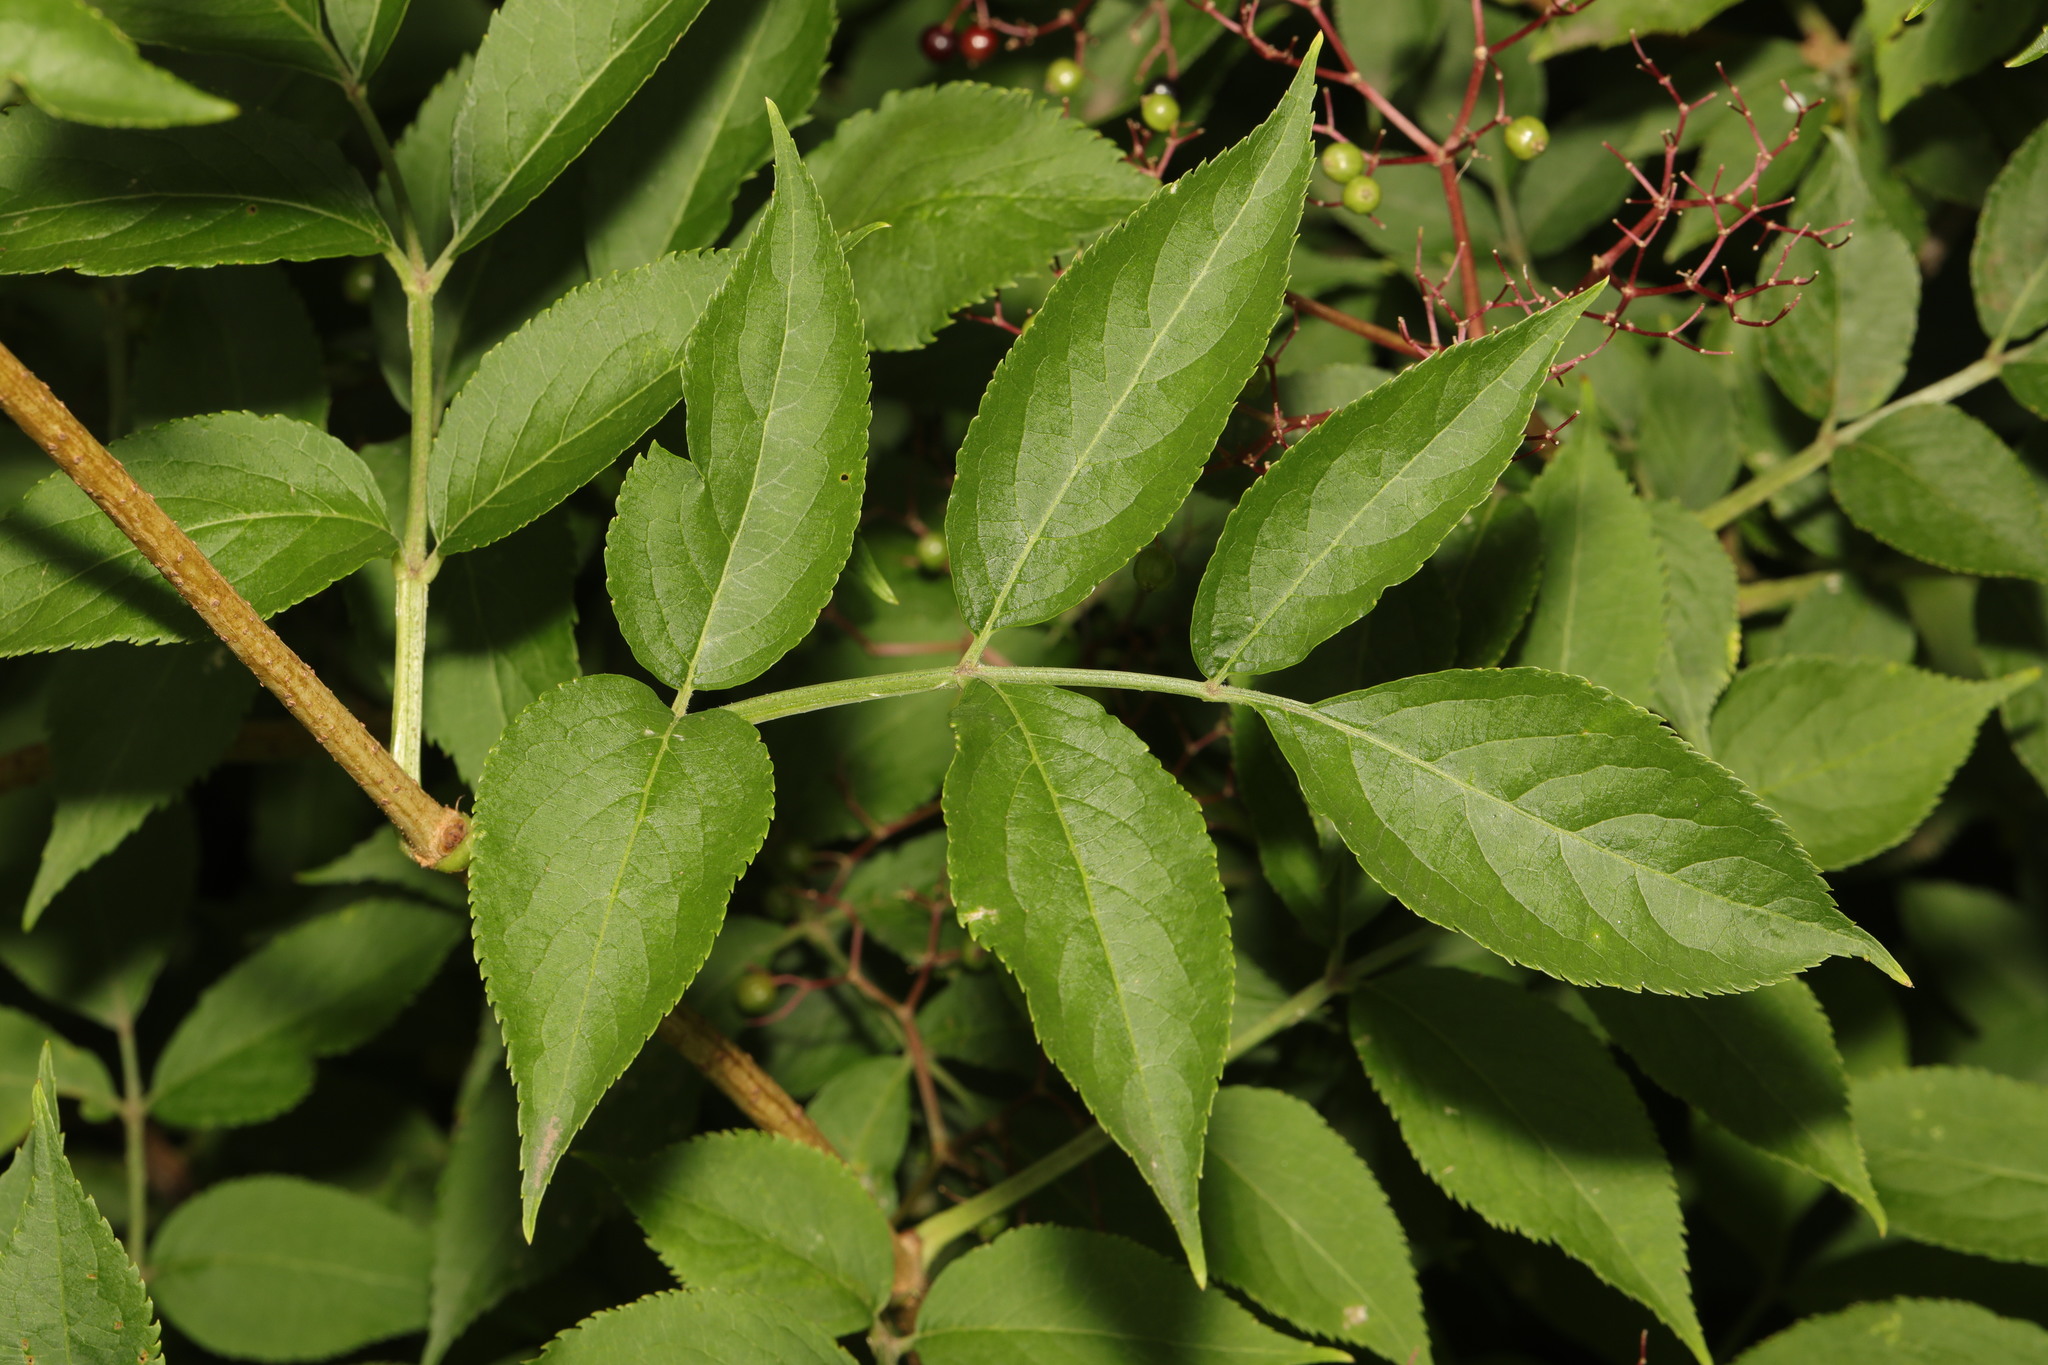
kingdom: Plantae
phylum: Tracheophyta
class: Magnoliopsida
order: Dipsacales
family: Viburnaceae
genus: Sambucus
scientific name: Sambucus nigra
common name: Elder
